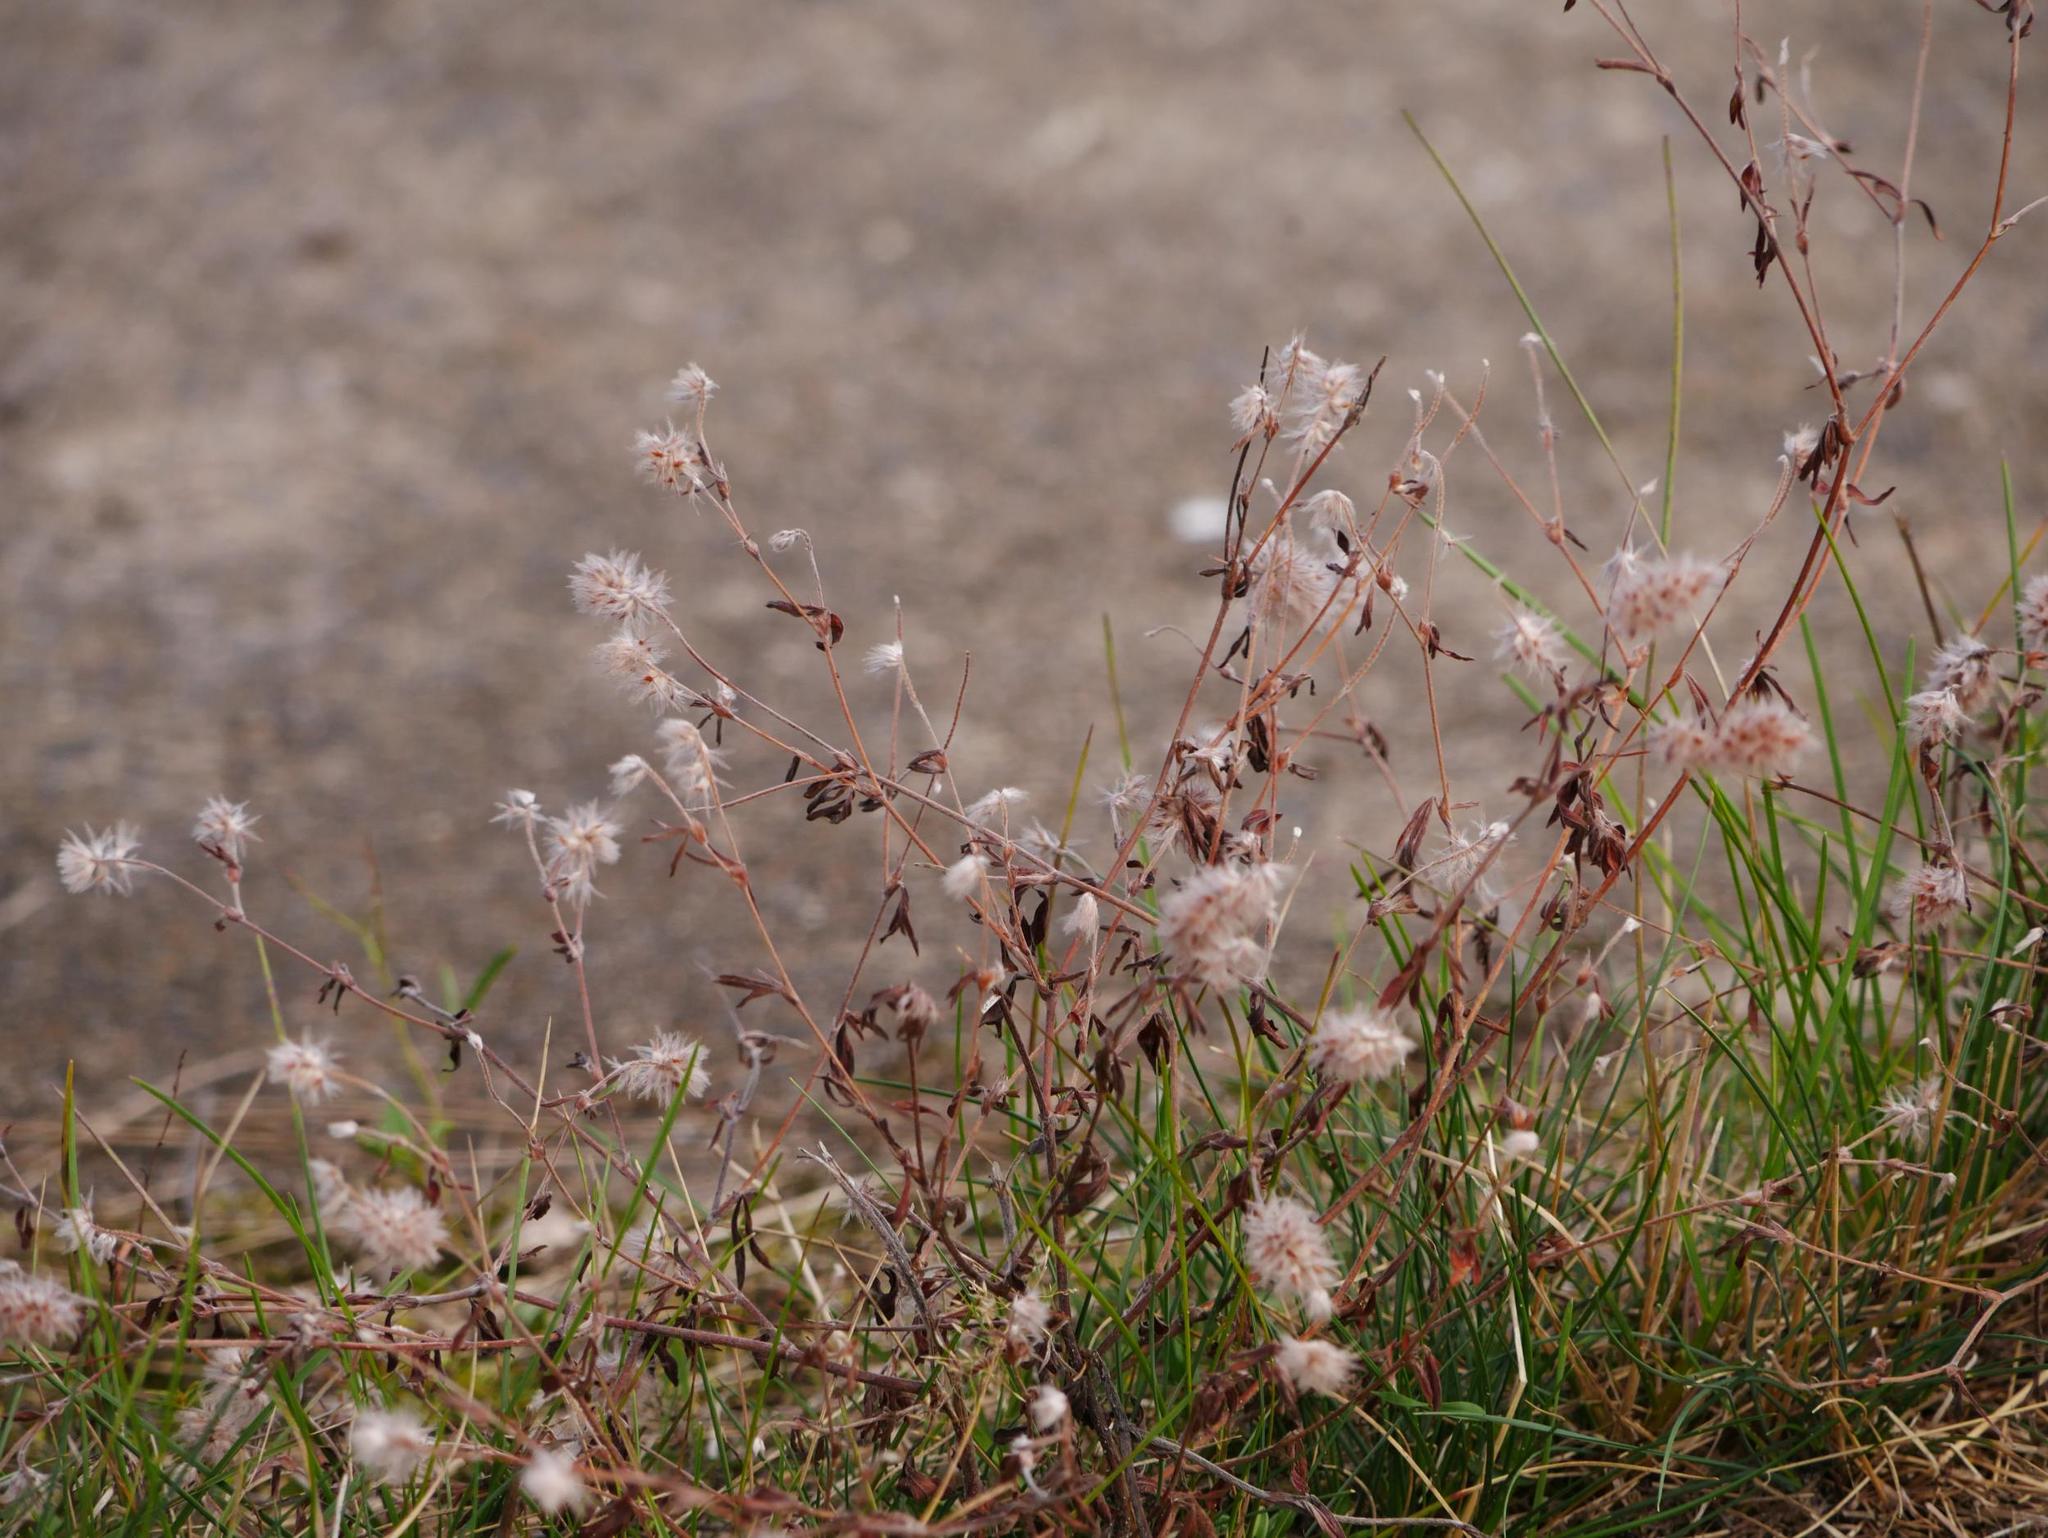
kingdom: Plantae
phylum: Tracheophyta
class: Magnoliopsida
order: Fabales
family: Fabaceae
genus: Trifolium
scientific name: Trifolium arvense
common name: Hare's-foot clover
